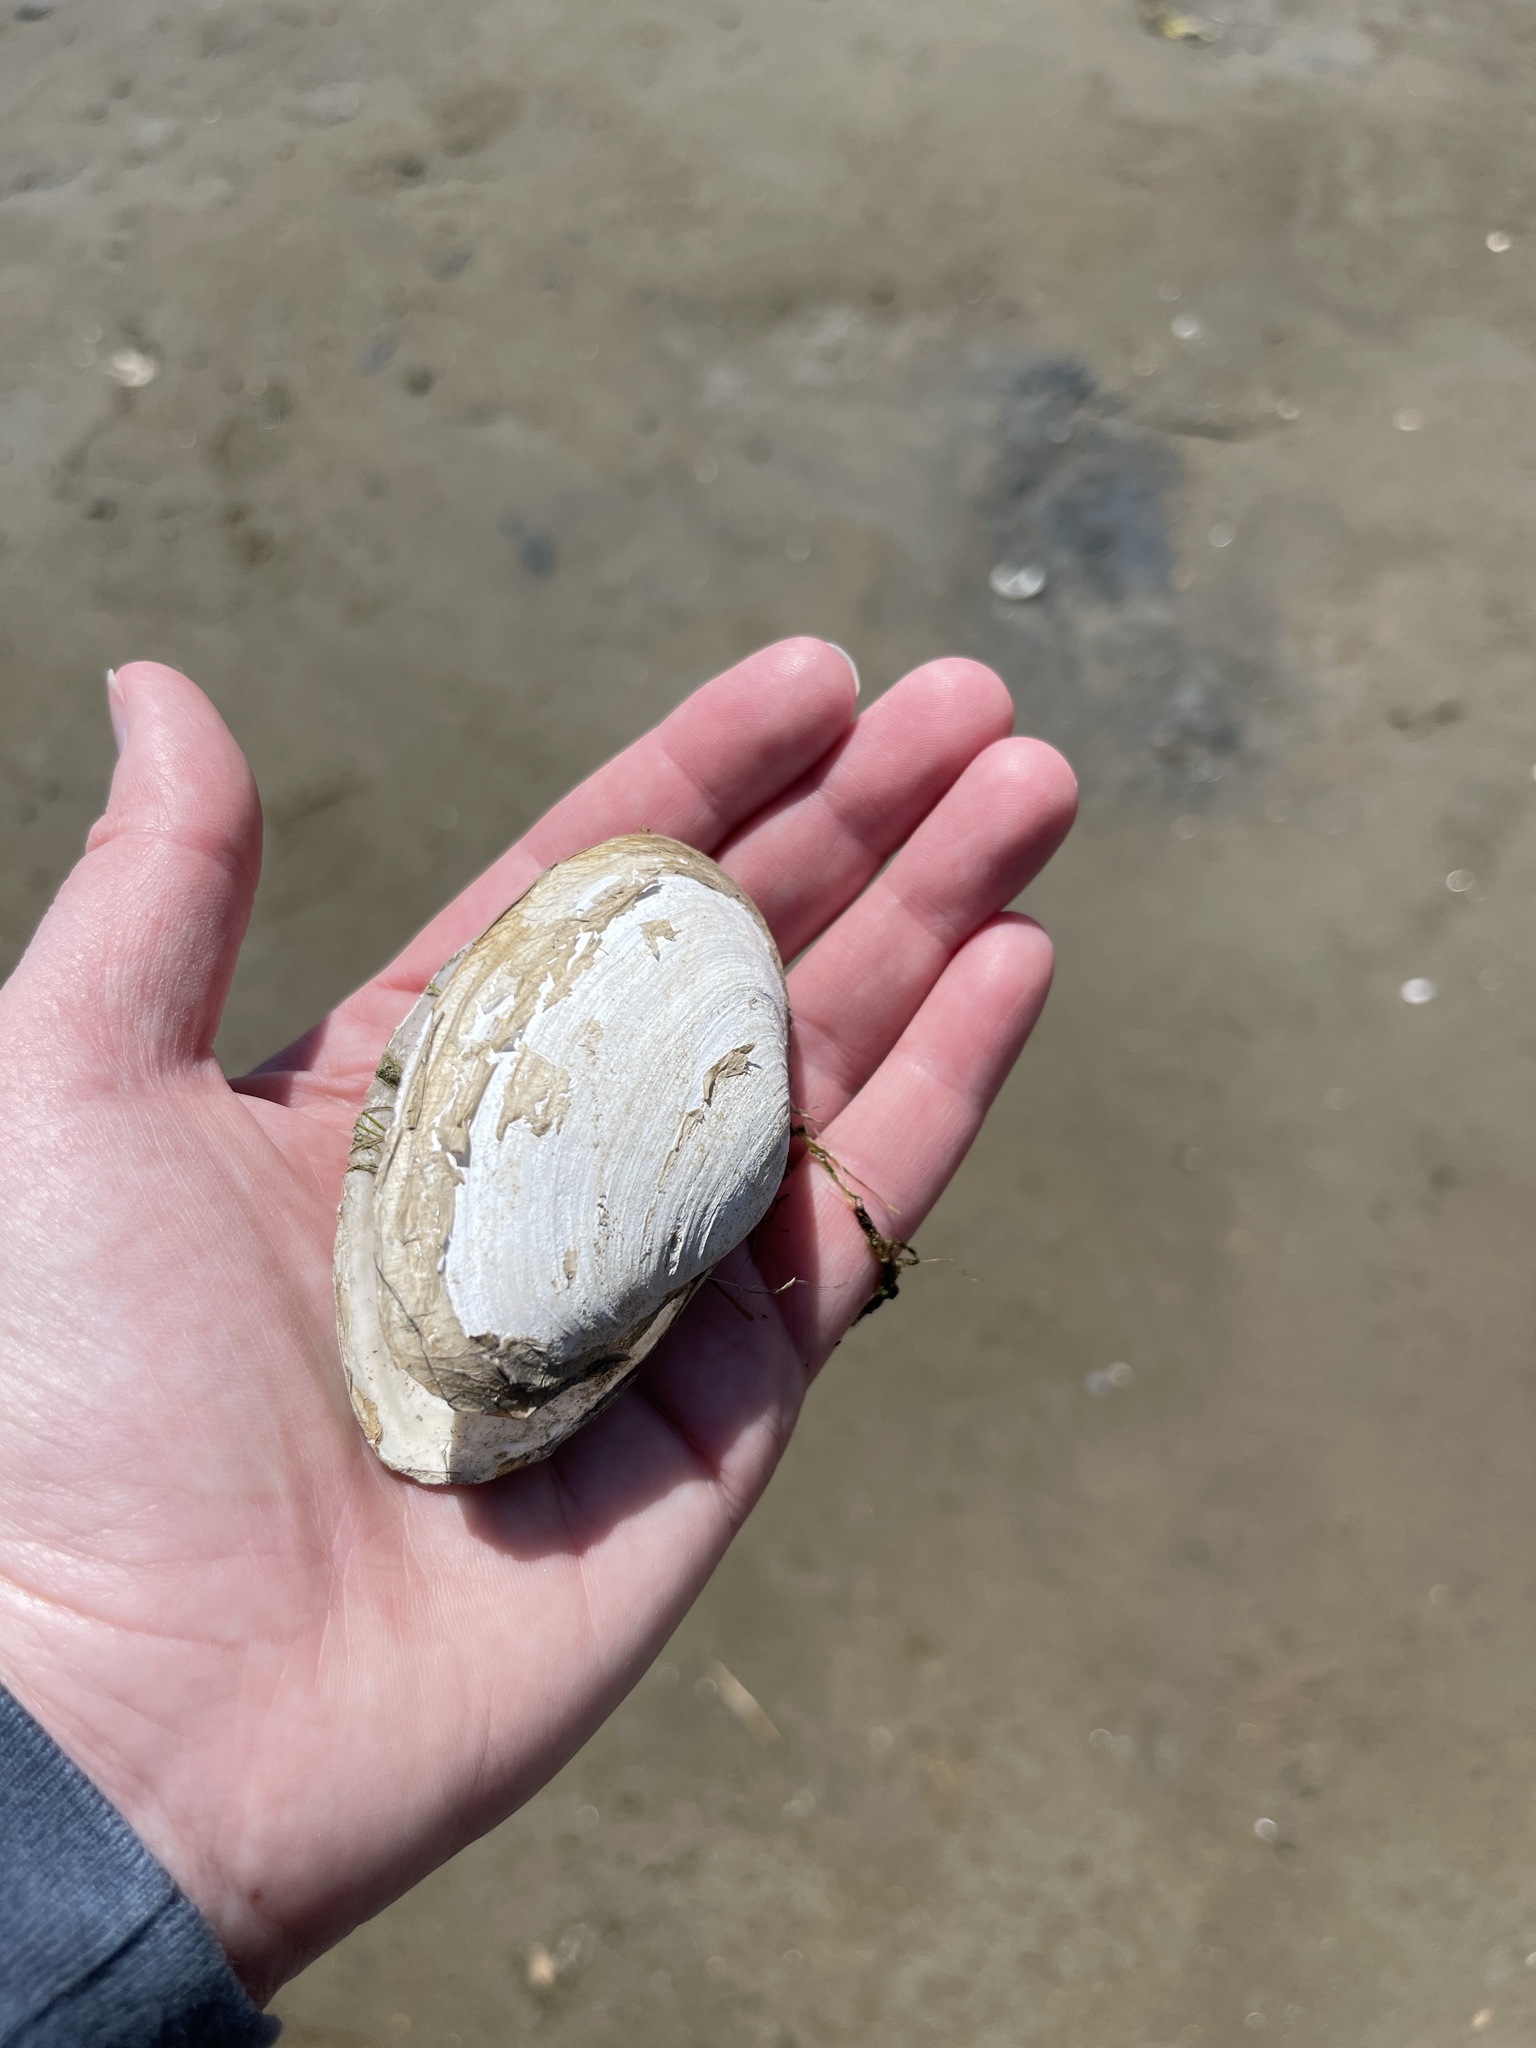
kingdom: Animalia
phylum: Mollusca
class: Bivalvia
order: Myida
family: Myidae
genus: Mya
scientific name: Mya arenaria
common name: Soft-shelled clam
